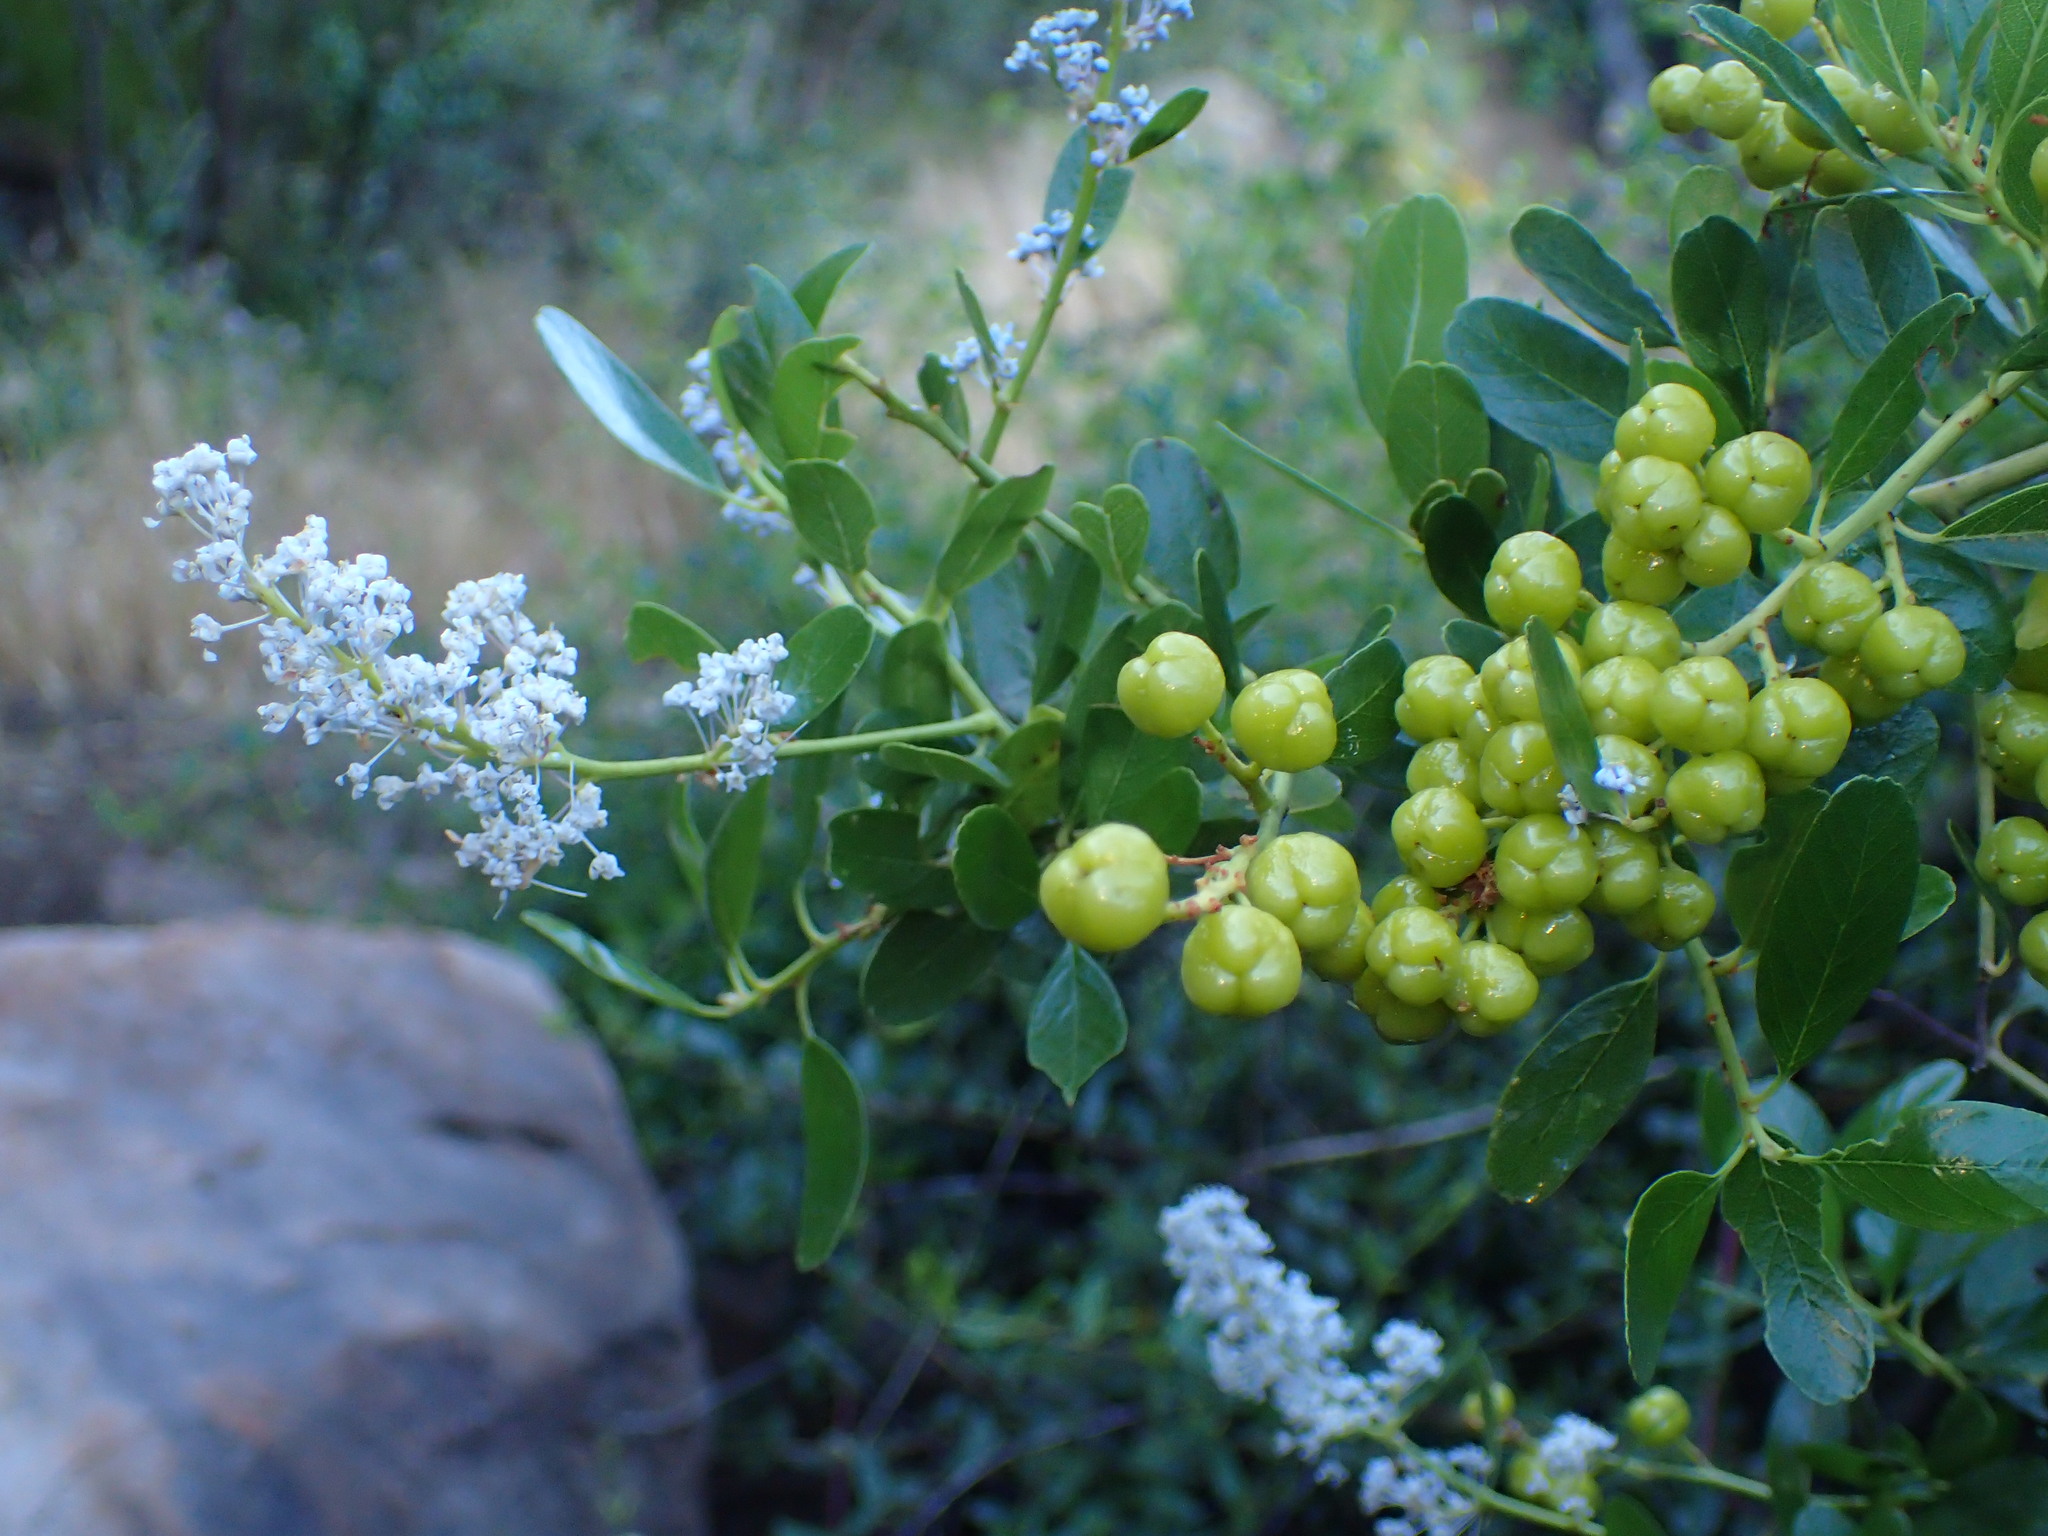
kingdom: Plantae
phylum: Tracheophyta
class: Magnoliopsida
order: Rosales
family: Rhamnaceae
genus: Ceanothus
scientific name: Ceanothus spinosus
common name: Greenbark whitethorn
